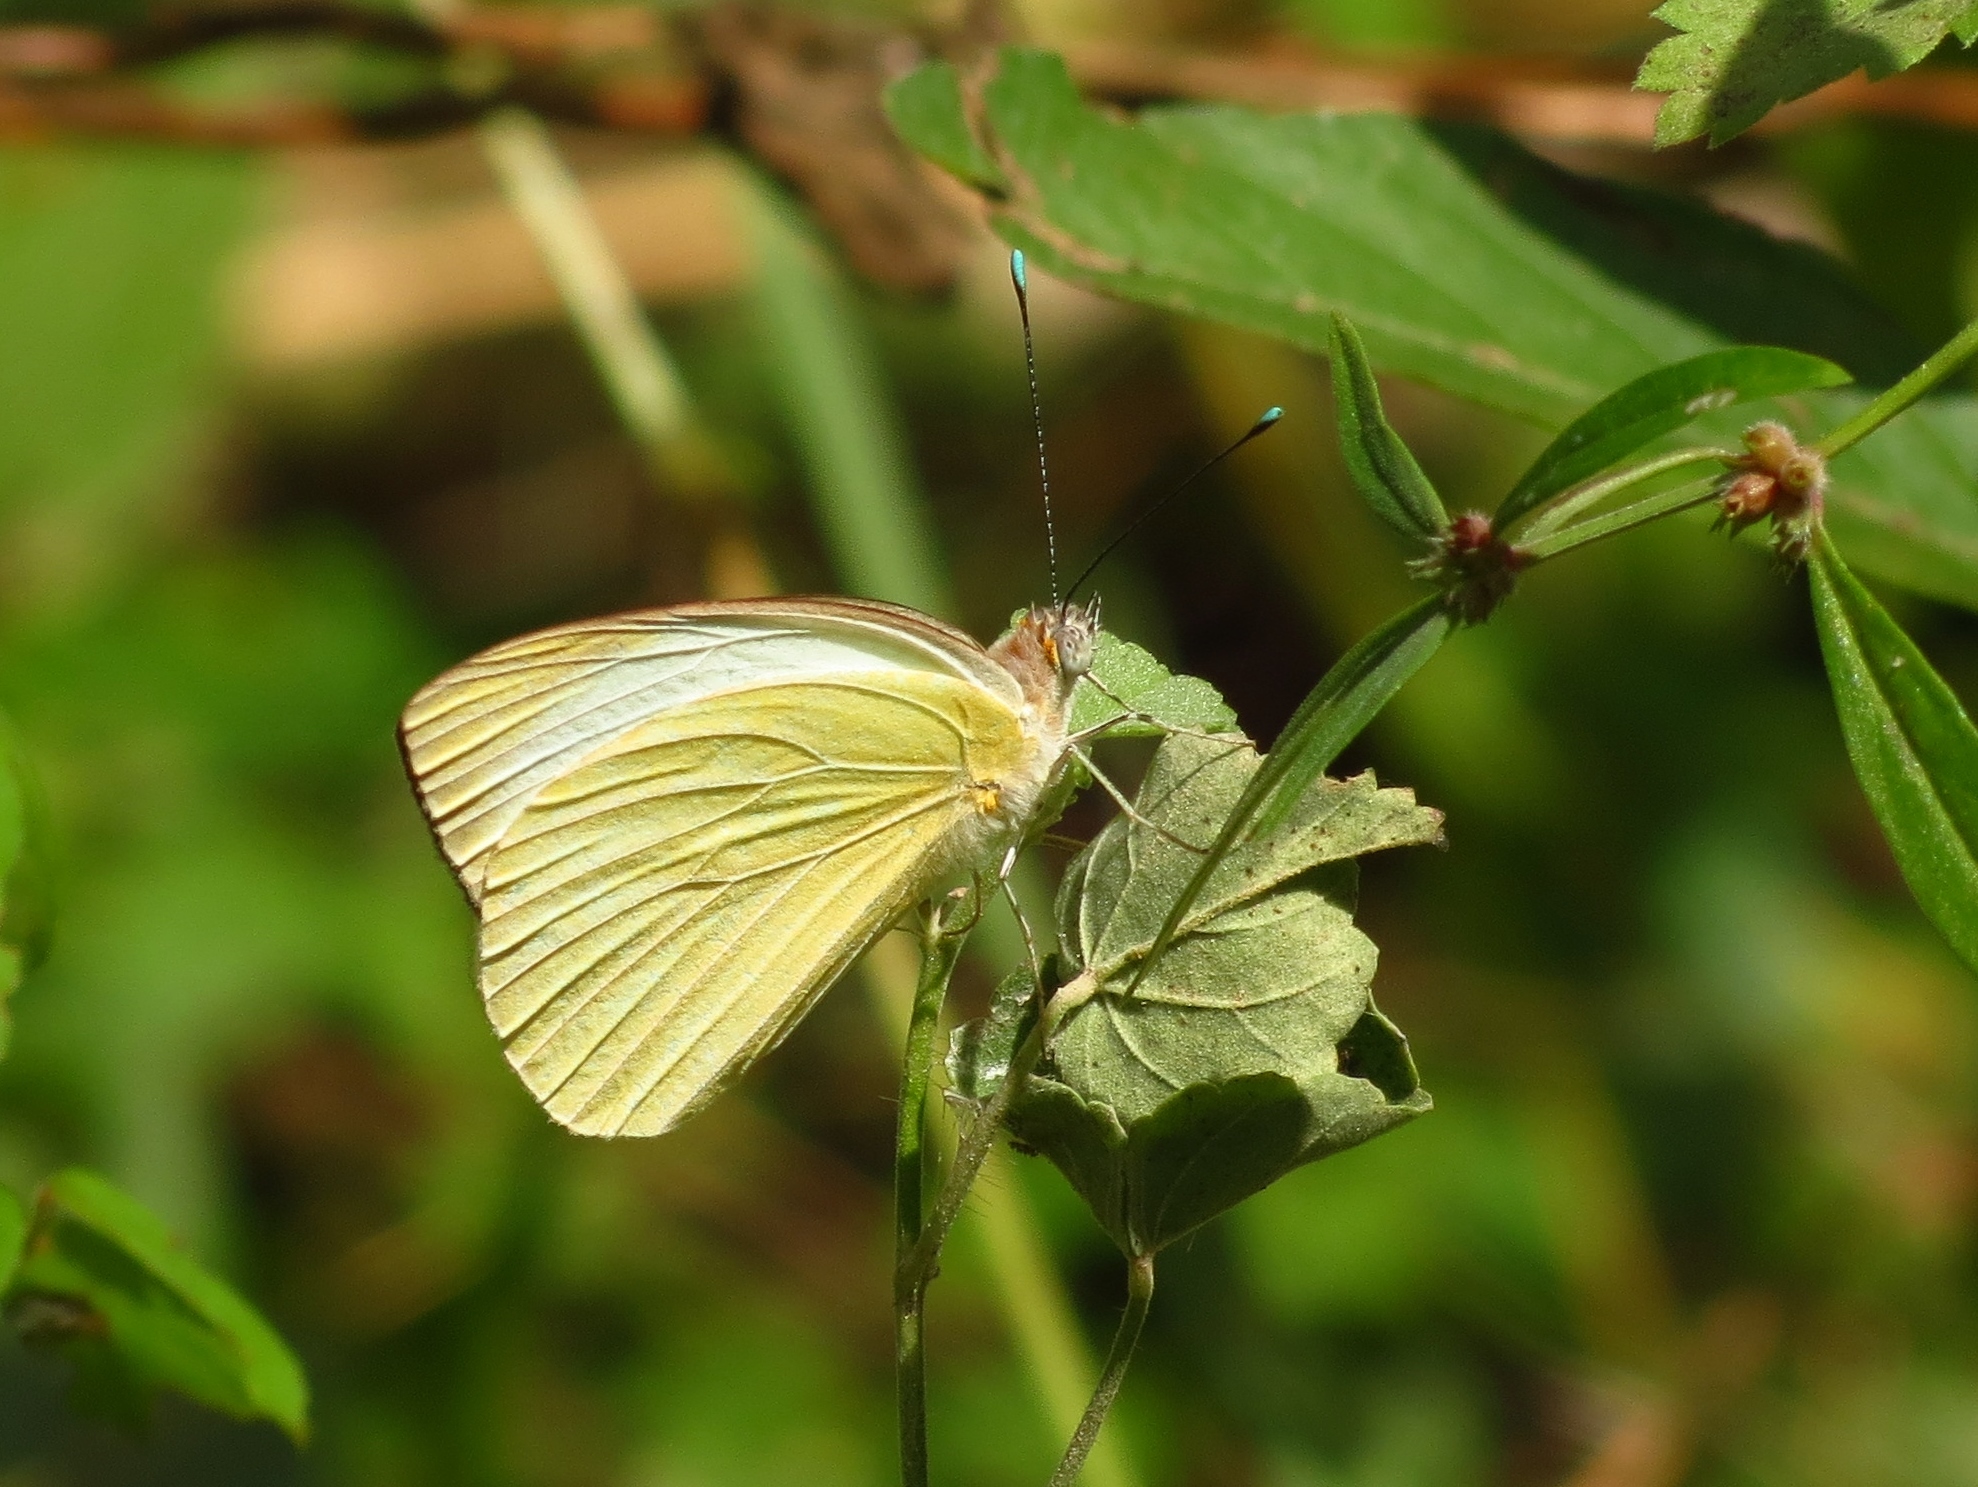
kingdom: Animalia
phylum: Arthropoda
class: Insecta
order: Lepidoptera
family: Pieridae
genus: Ascia
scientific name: Ascia monuste
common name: Great southern white
